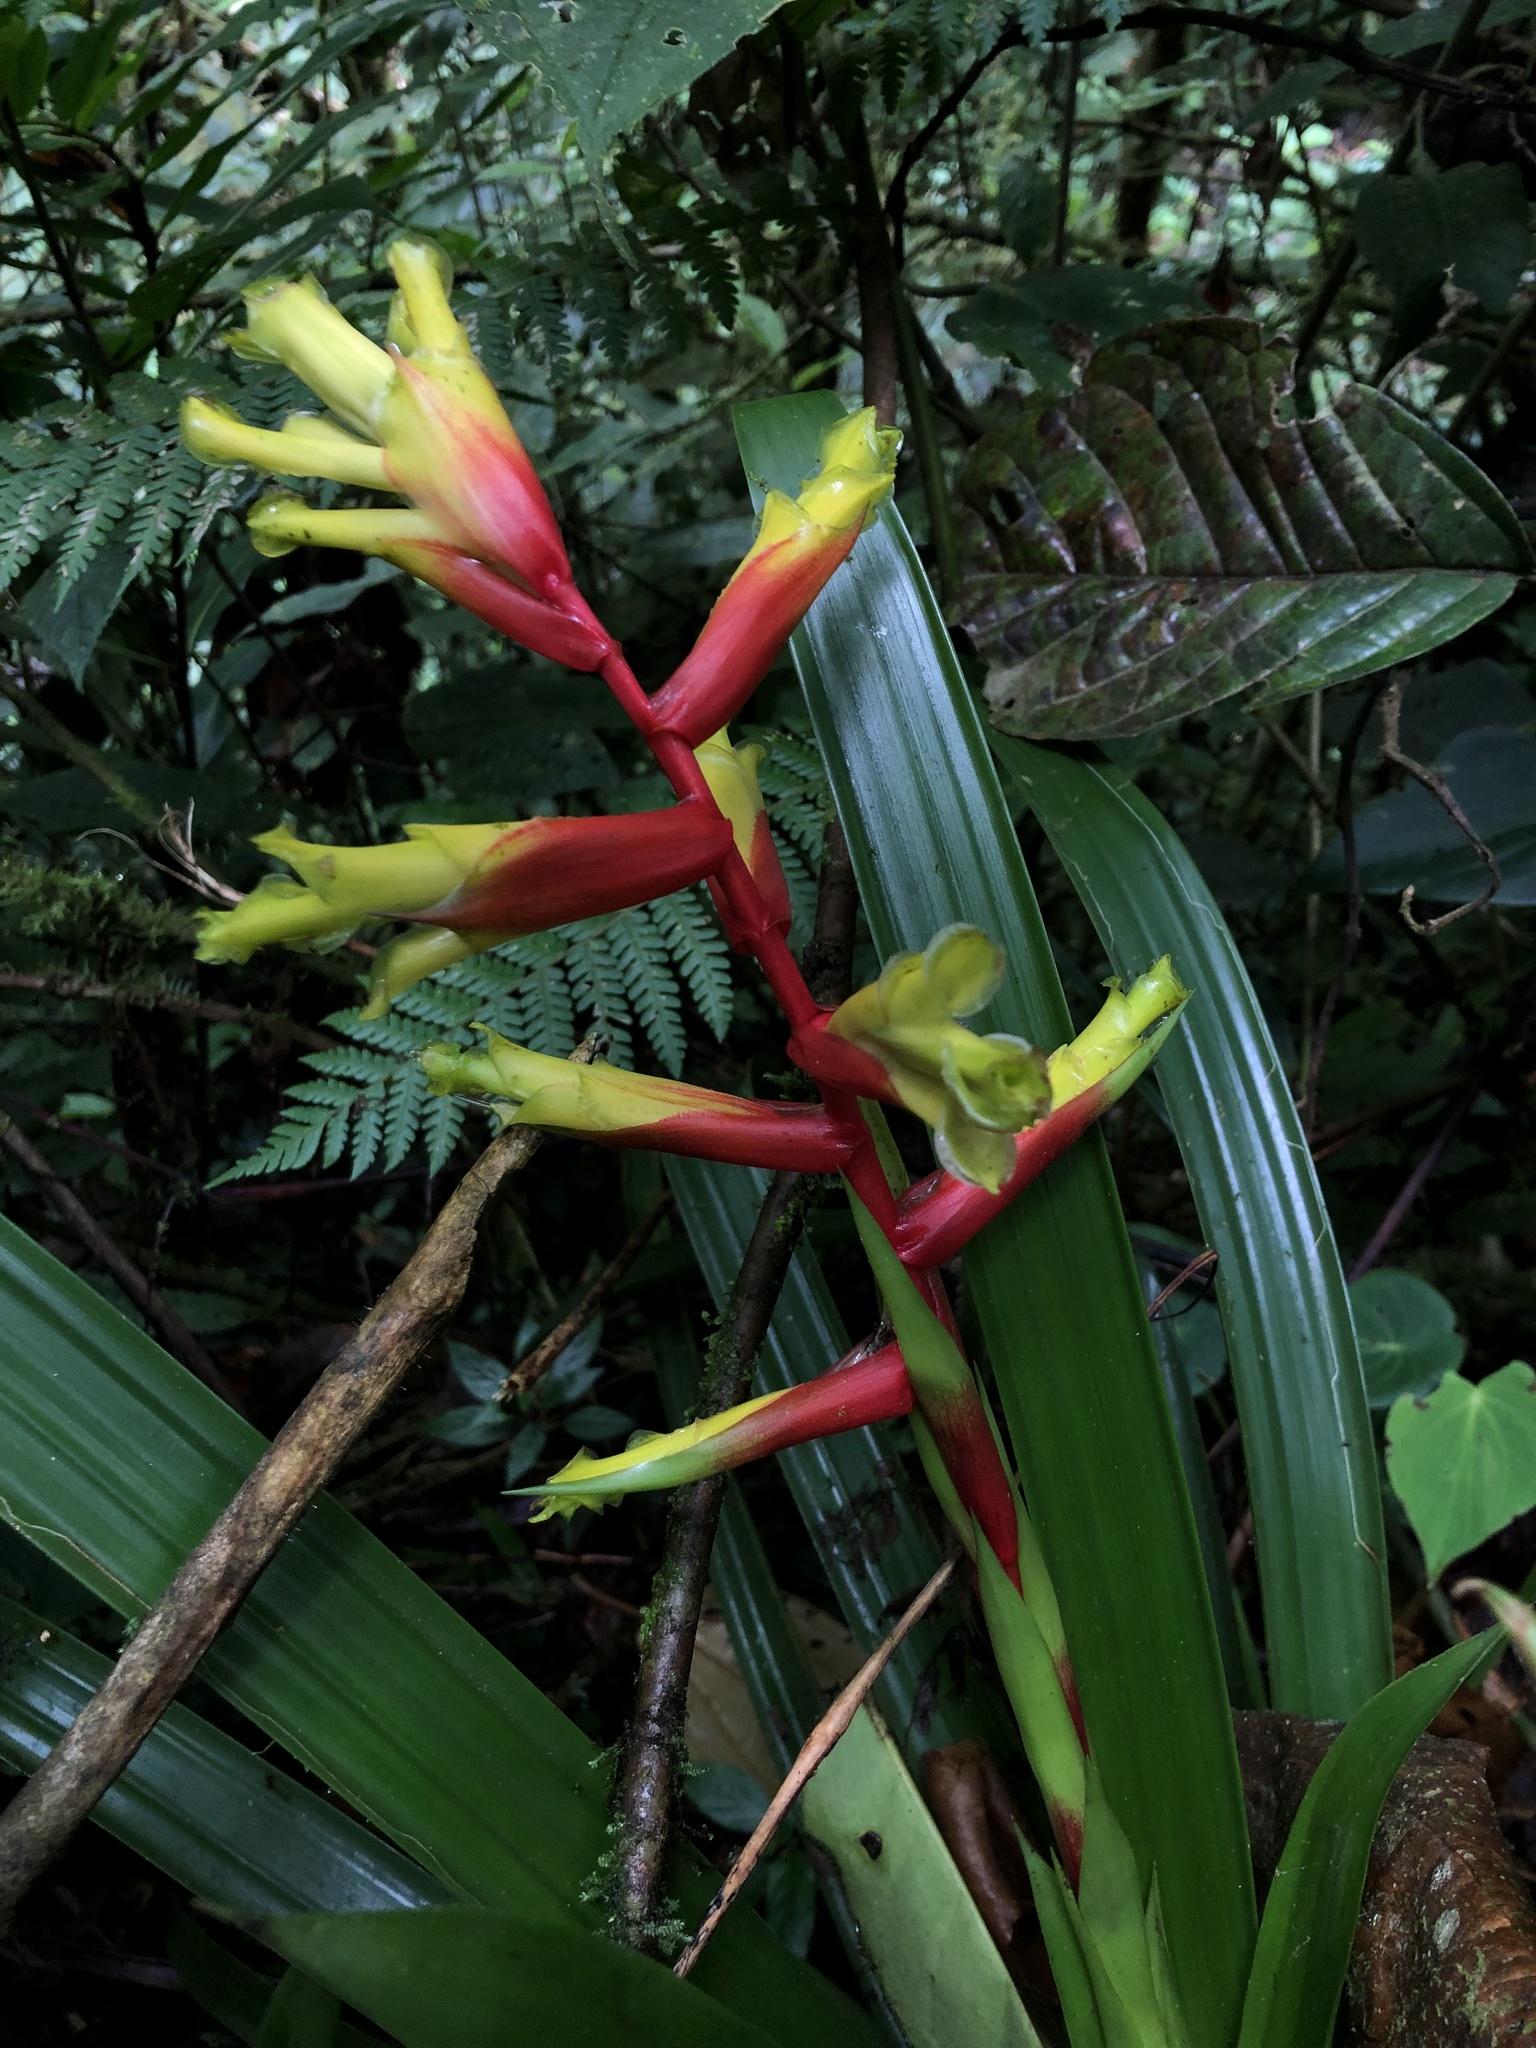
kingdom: Plantae
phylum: Tracheophyta
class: Liliopsida
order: Poales
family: Bromeliaceae
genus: Guzmania
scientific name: Guzmania xanthobractea
